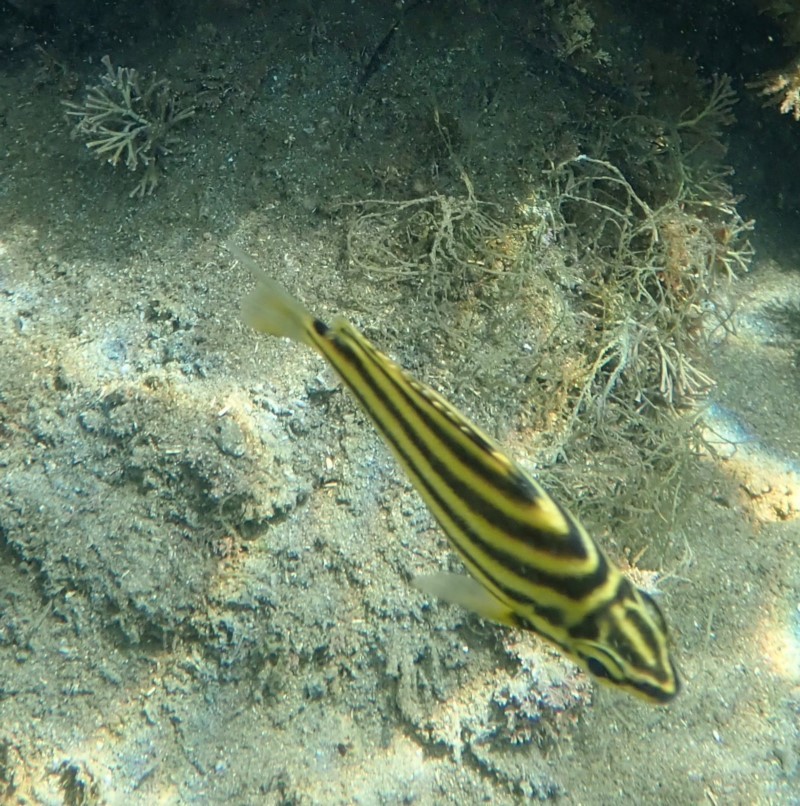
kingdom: Animalia
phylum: Chordata
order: Perciformes
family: Kyphosidae
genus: Microcanthus
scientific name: Microcanthus joyceae
